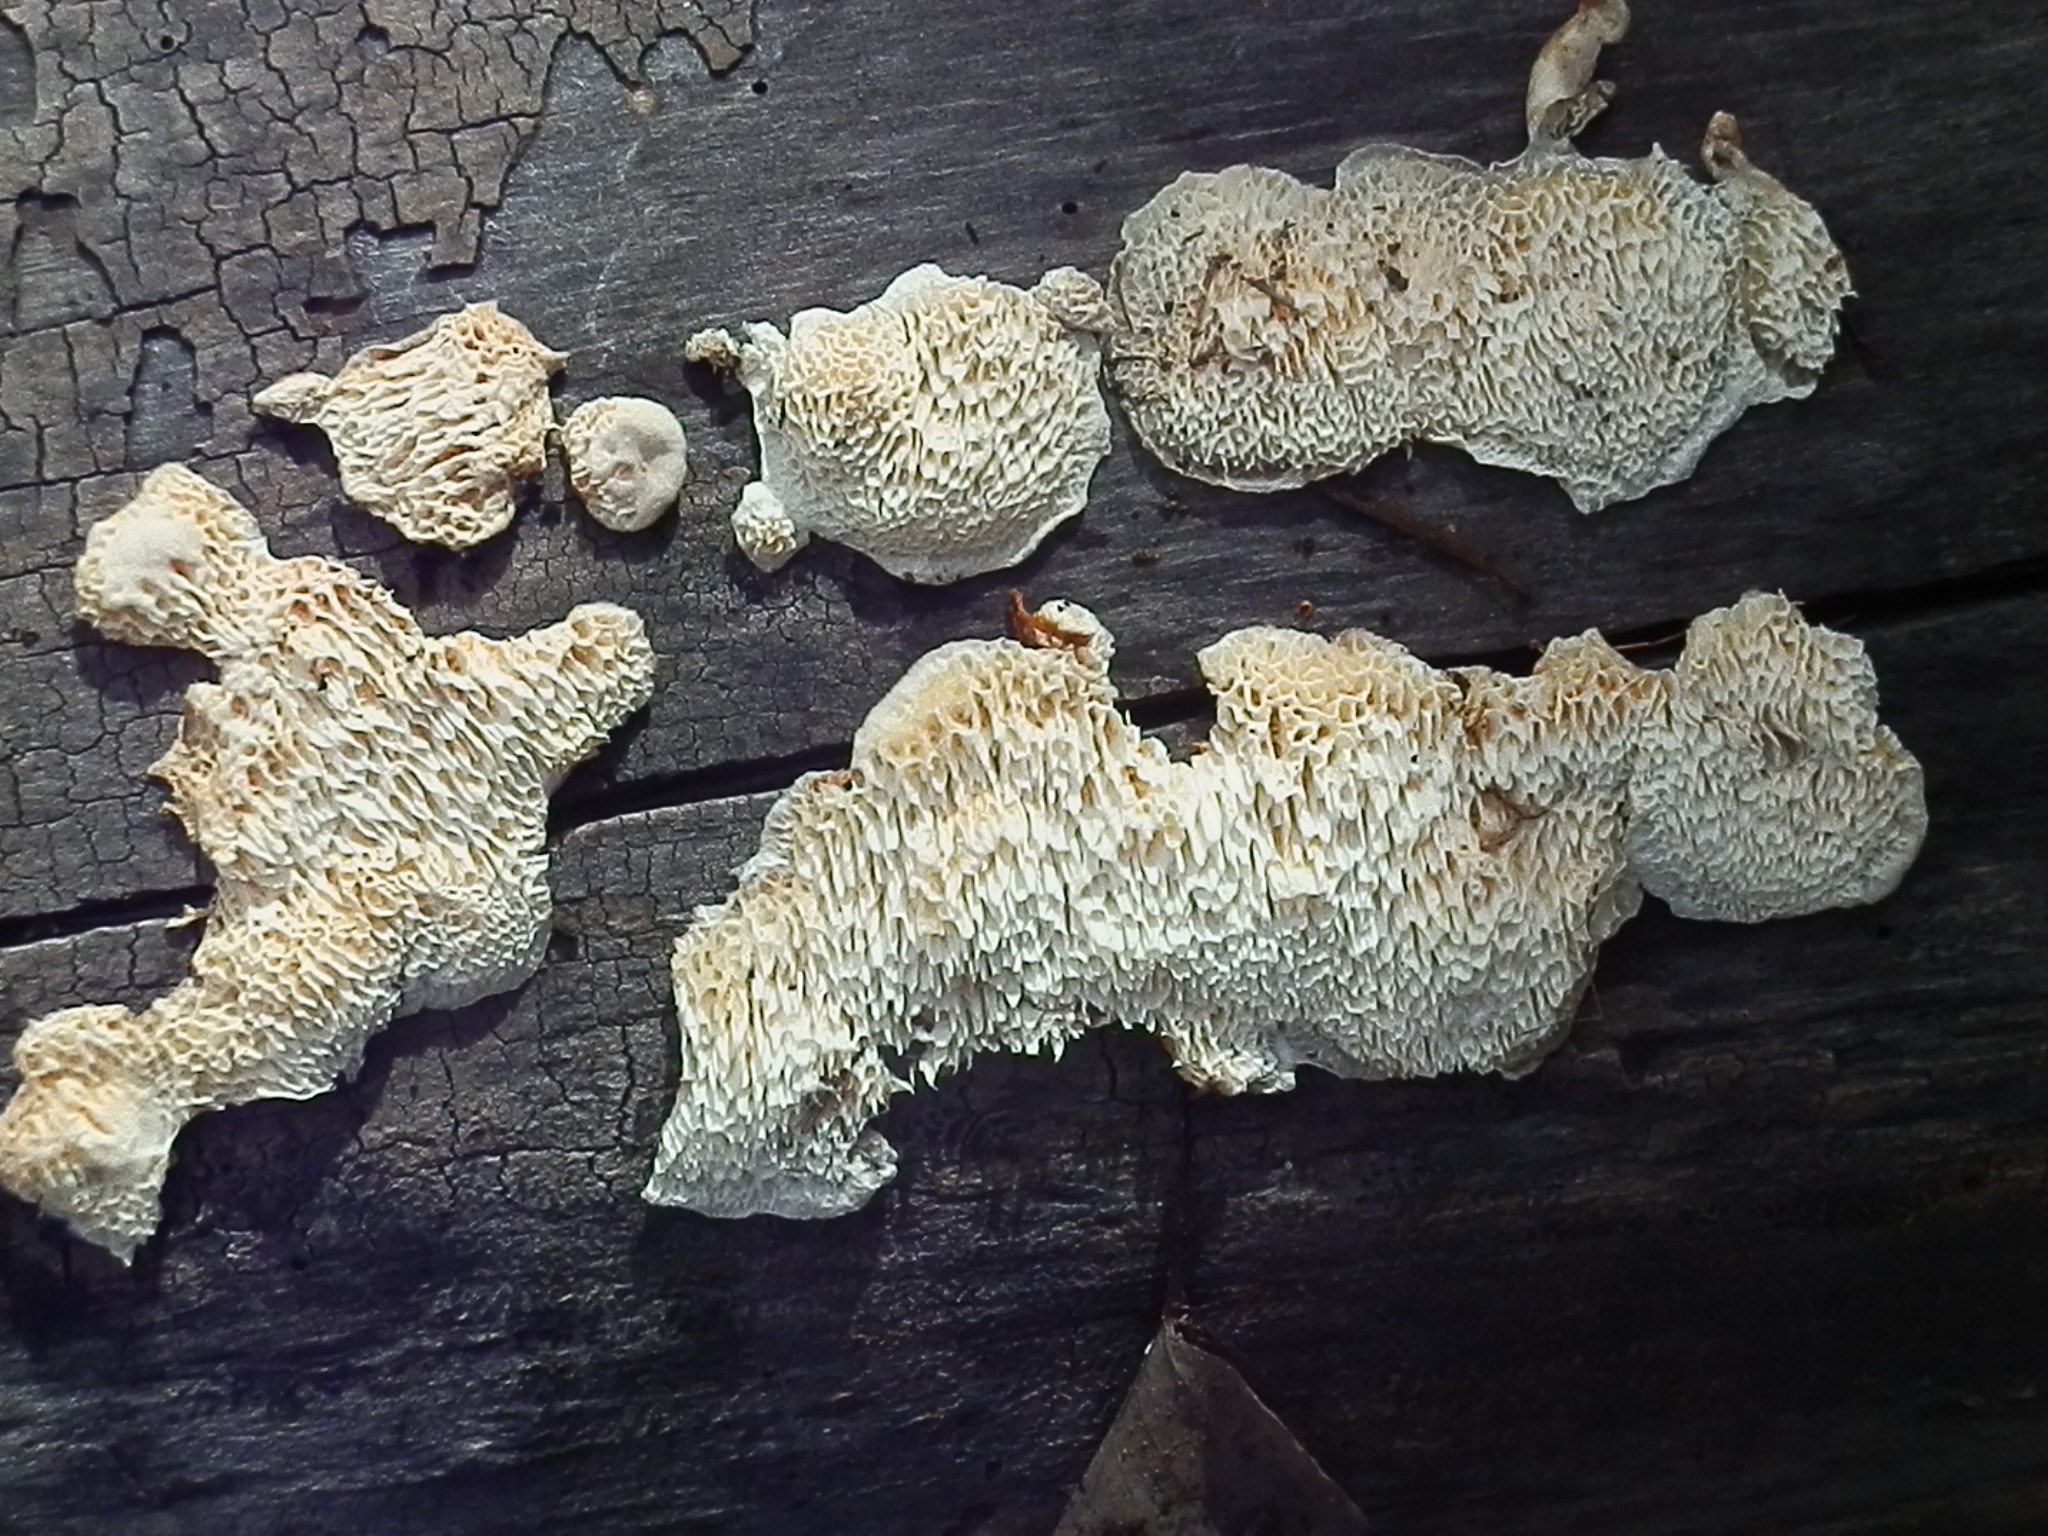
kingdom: Fungi
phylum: Basidiomycota
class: Agaricomycetes
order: Polyporales
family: Pycnoporellaceae
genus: Pycnoporellus
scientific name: Pycnoporellus alboluteus
